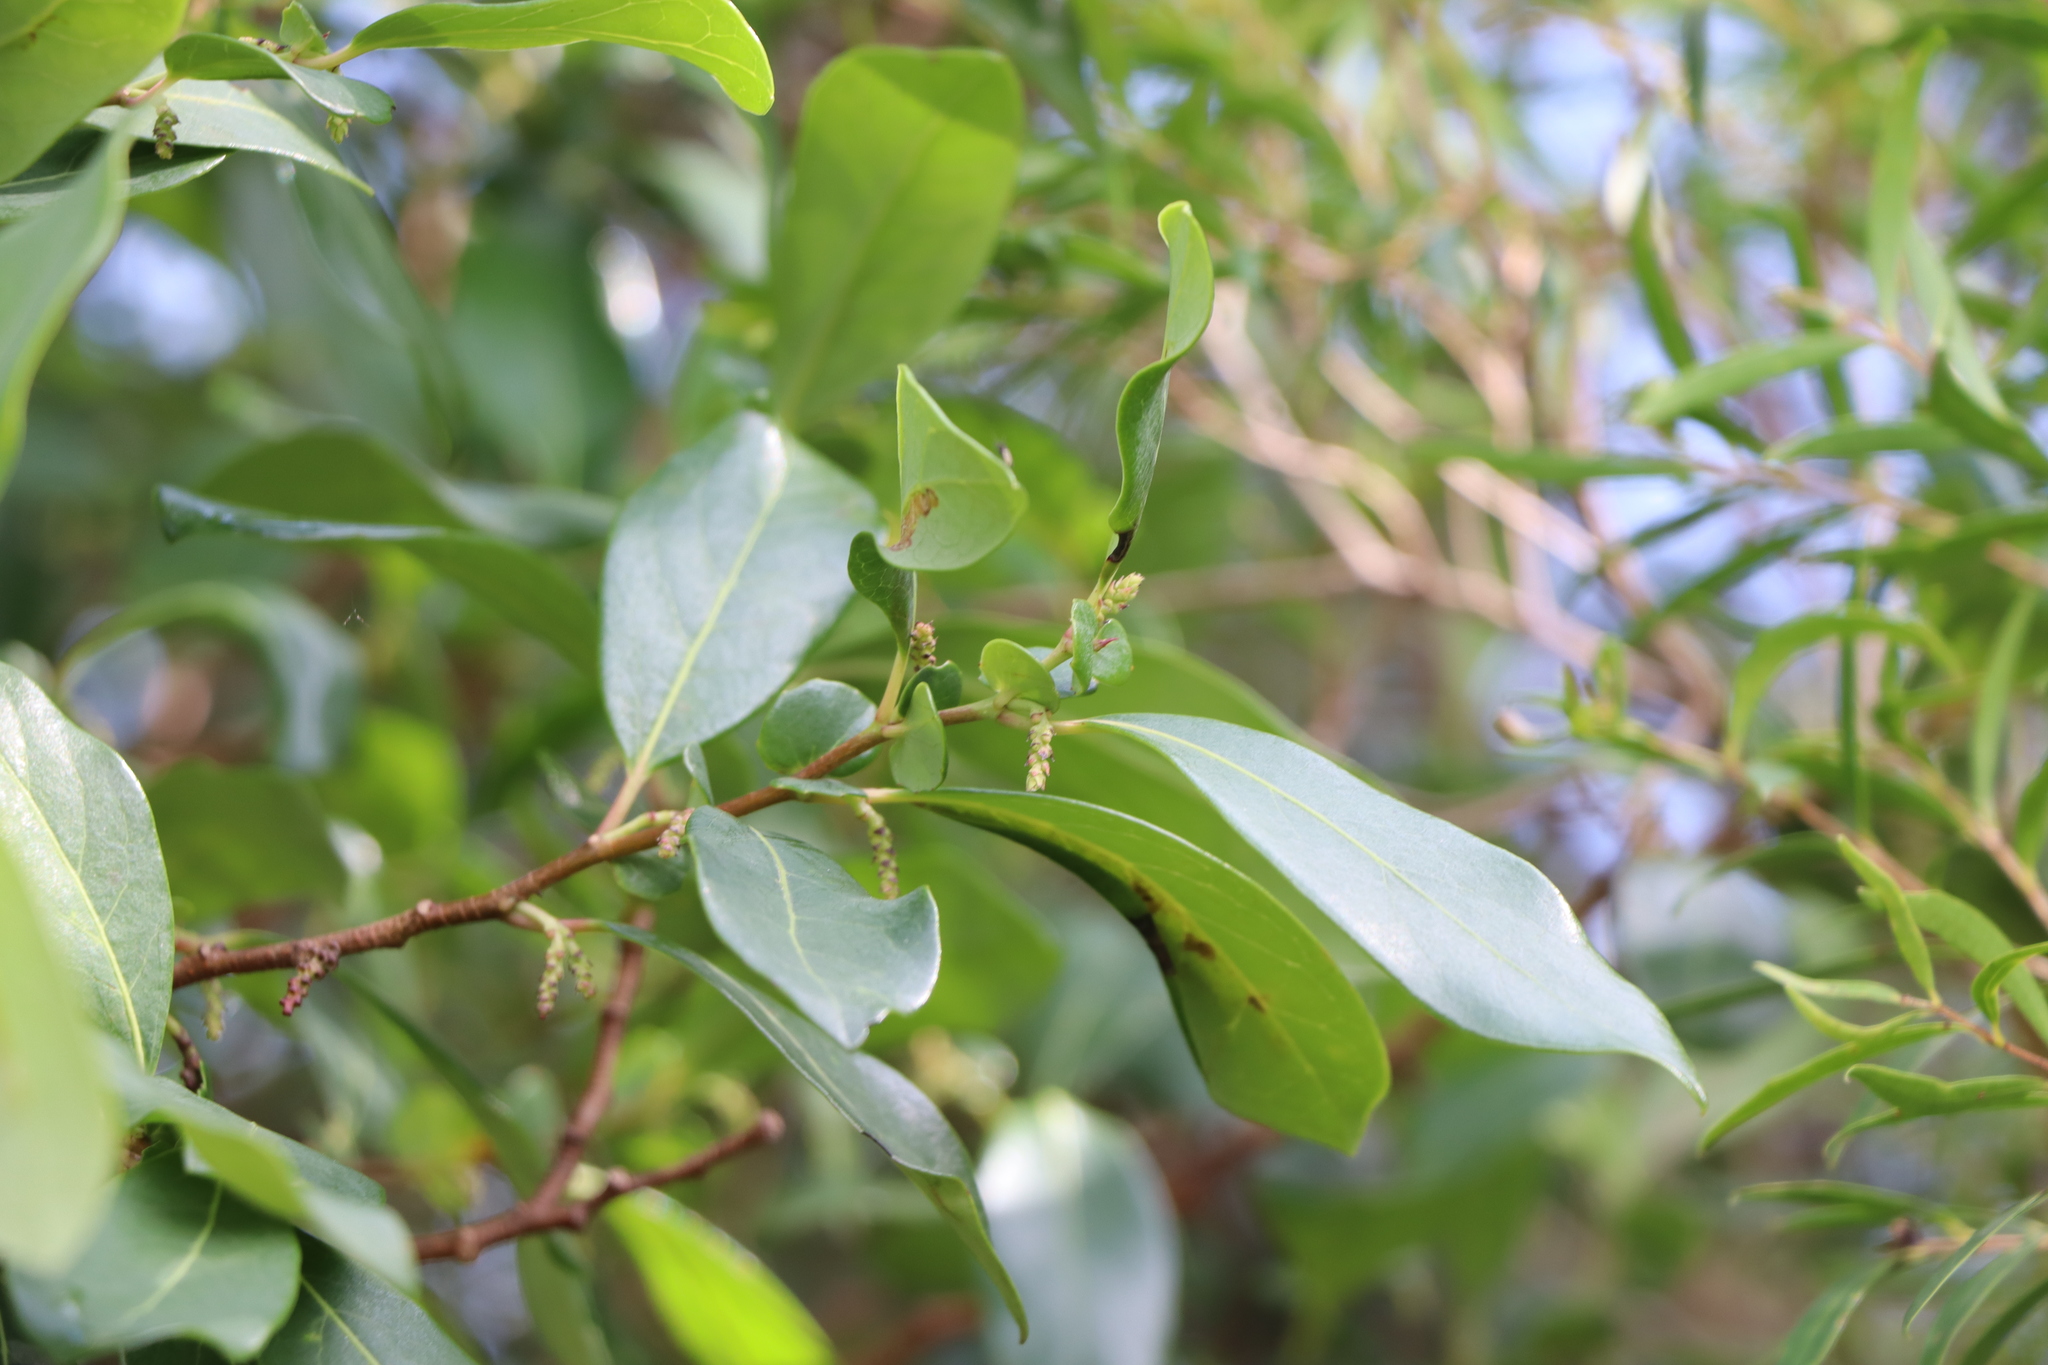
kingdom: Plantae
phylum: Tracheophyta
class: Magnoliopsida
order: Malpighiales
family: Salicaceae
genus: Azara
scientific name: Azara uruguayensis
